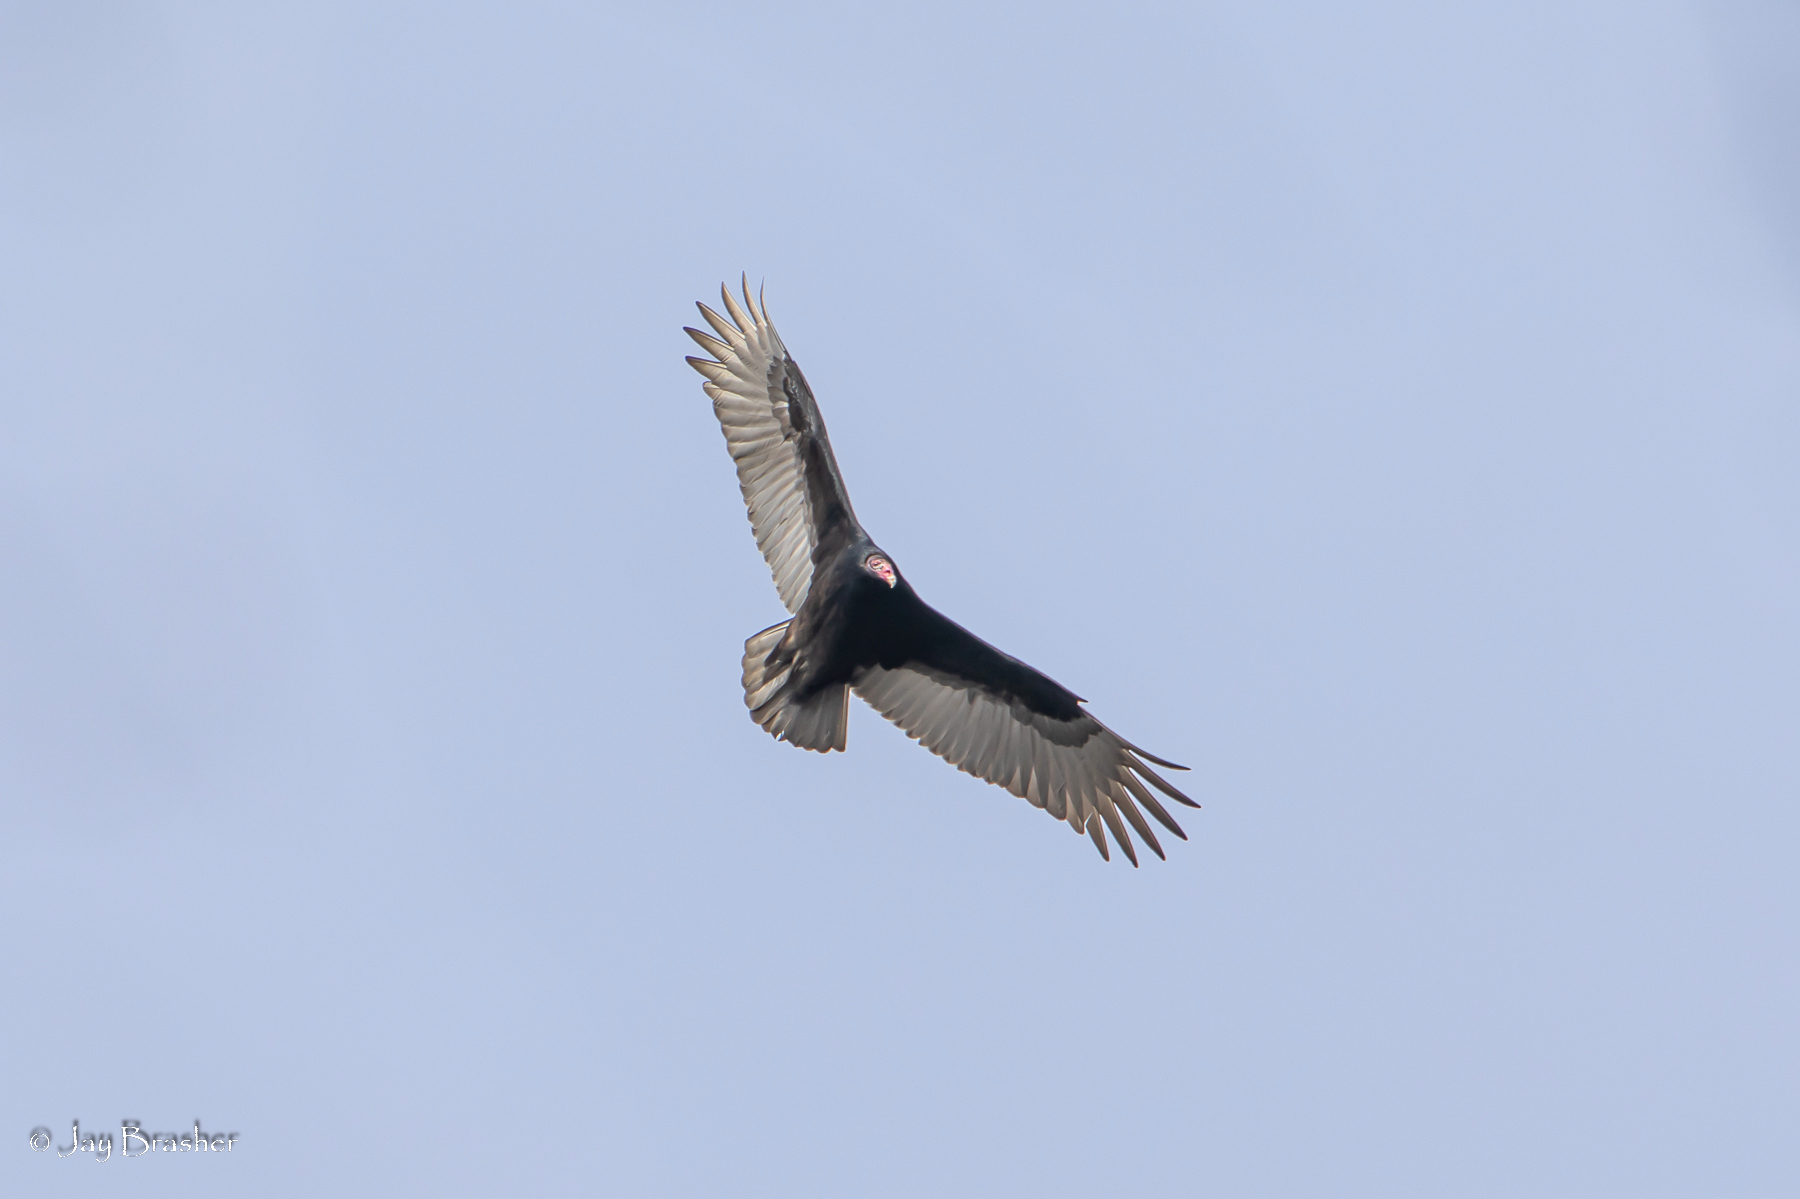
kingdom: Animalia
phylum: Chordata
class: Aves
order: Accipitriformes
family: Cathartidae
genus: Cathartes
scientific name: Cathartes aura
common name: Turkey vulture
